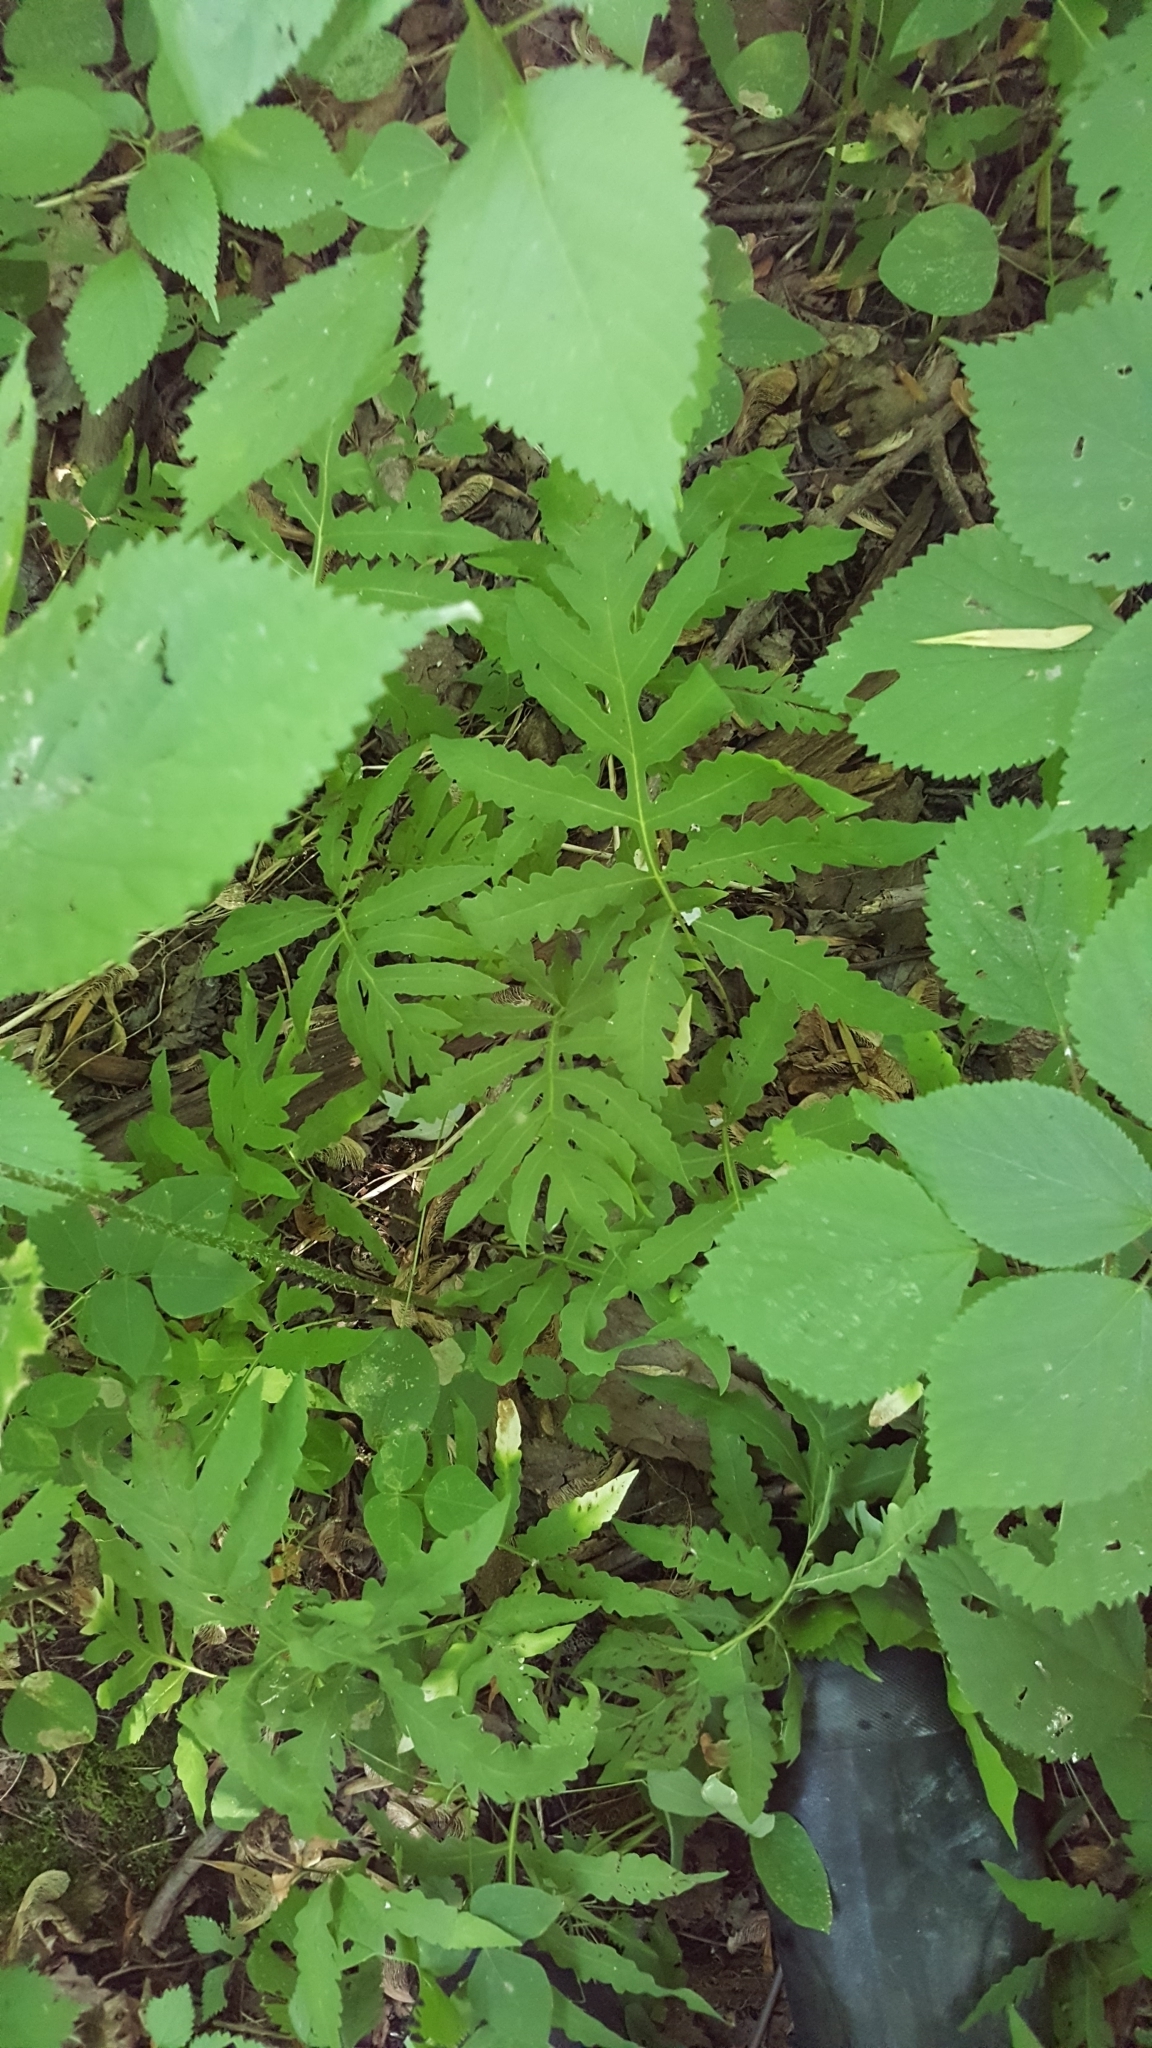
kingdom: Plantae
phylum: Tracheophyta
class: Polypodiopsida
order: Polypodiales
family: Onocleaceae
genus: Onoclea
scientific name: Onoclea sensibilis
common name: Sensitive fern
